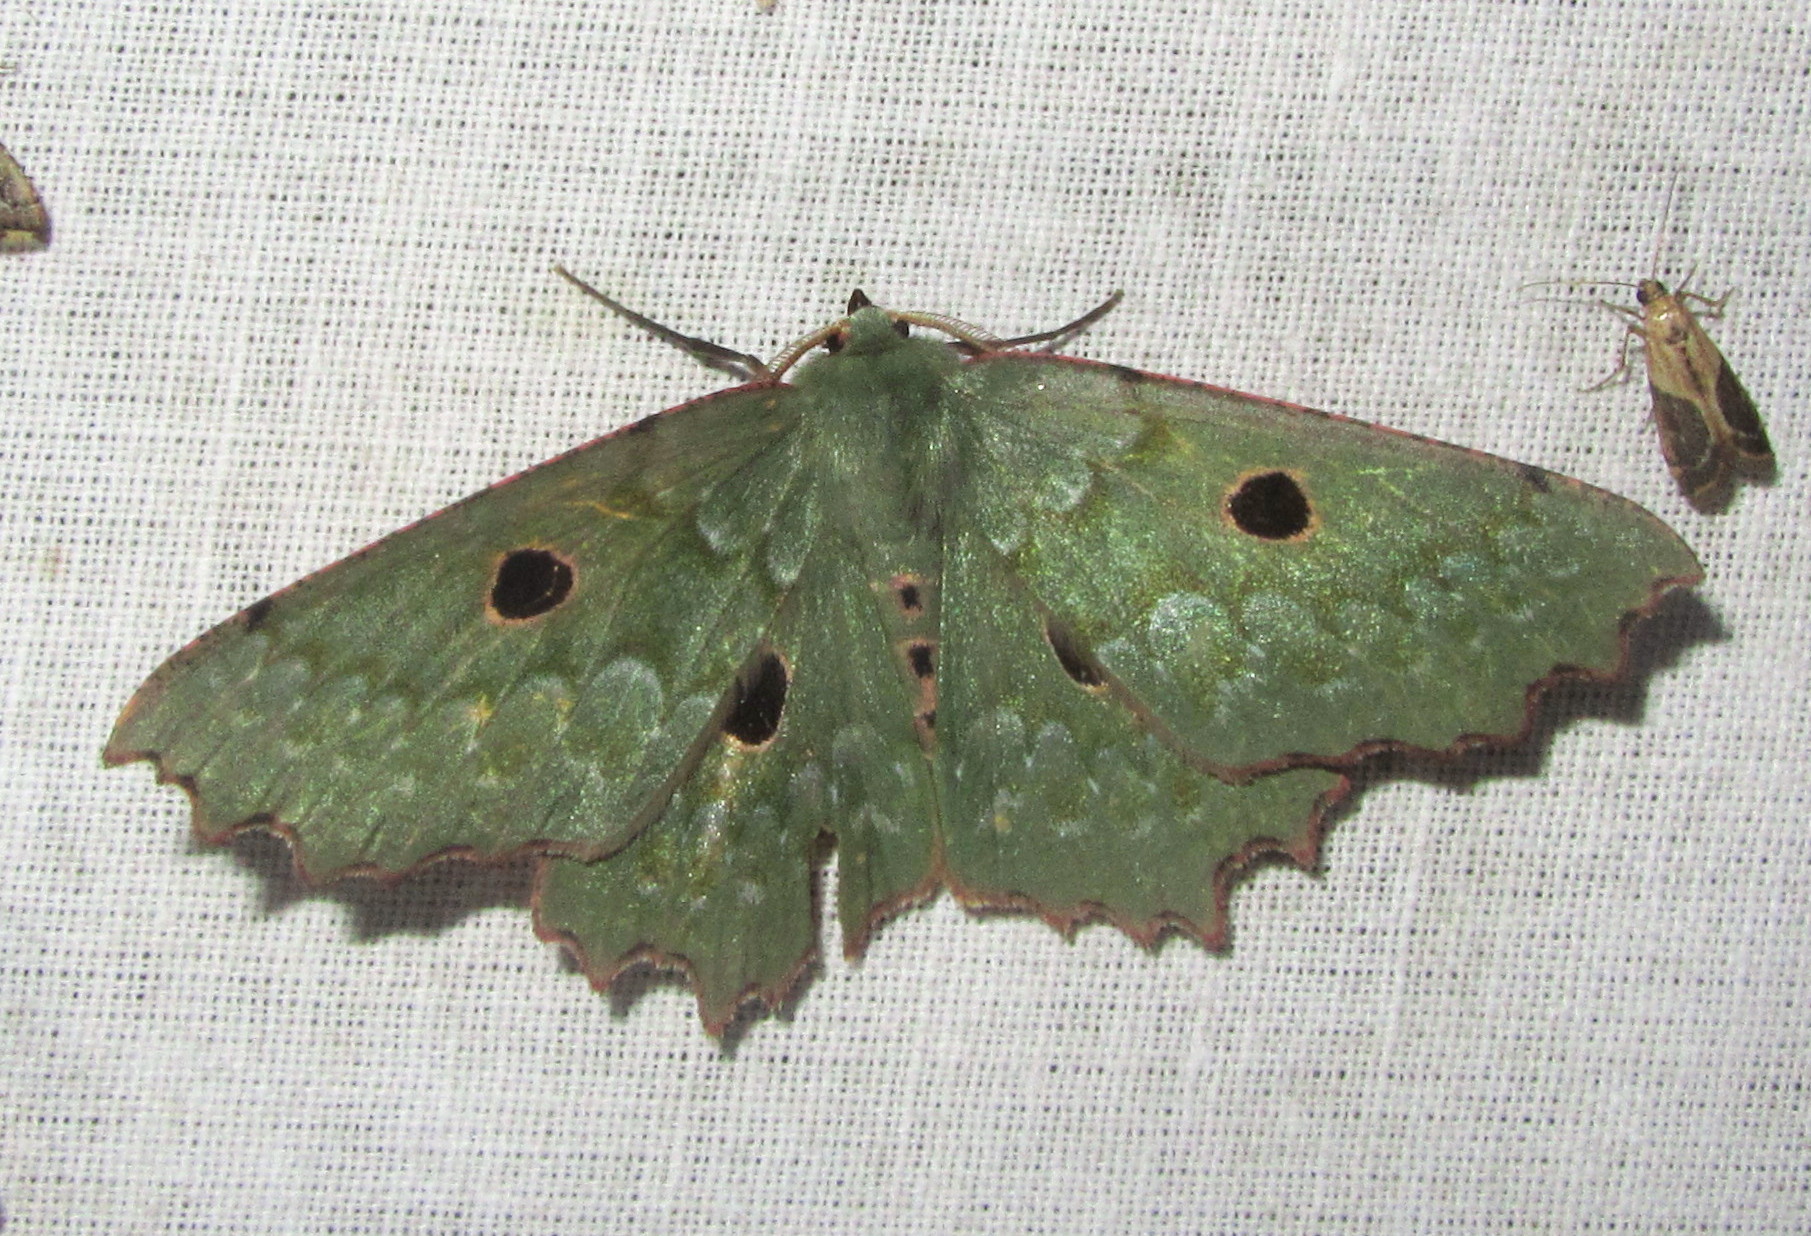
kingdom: Animalia
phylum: Arthropoda
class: Insecta
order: Lepidoptera
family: Geometridae
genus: Chlorodontopera
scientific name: Chlorodontopera discospilata
